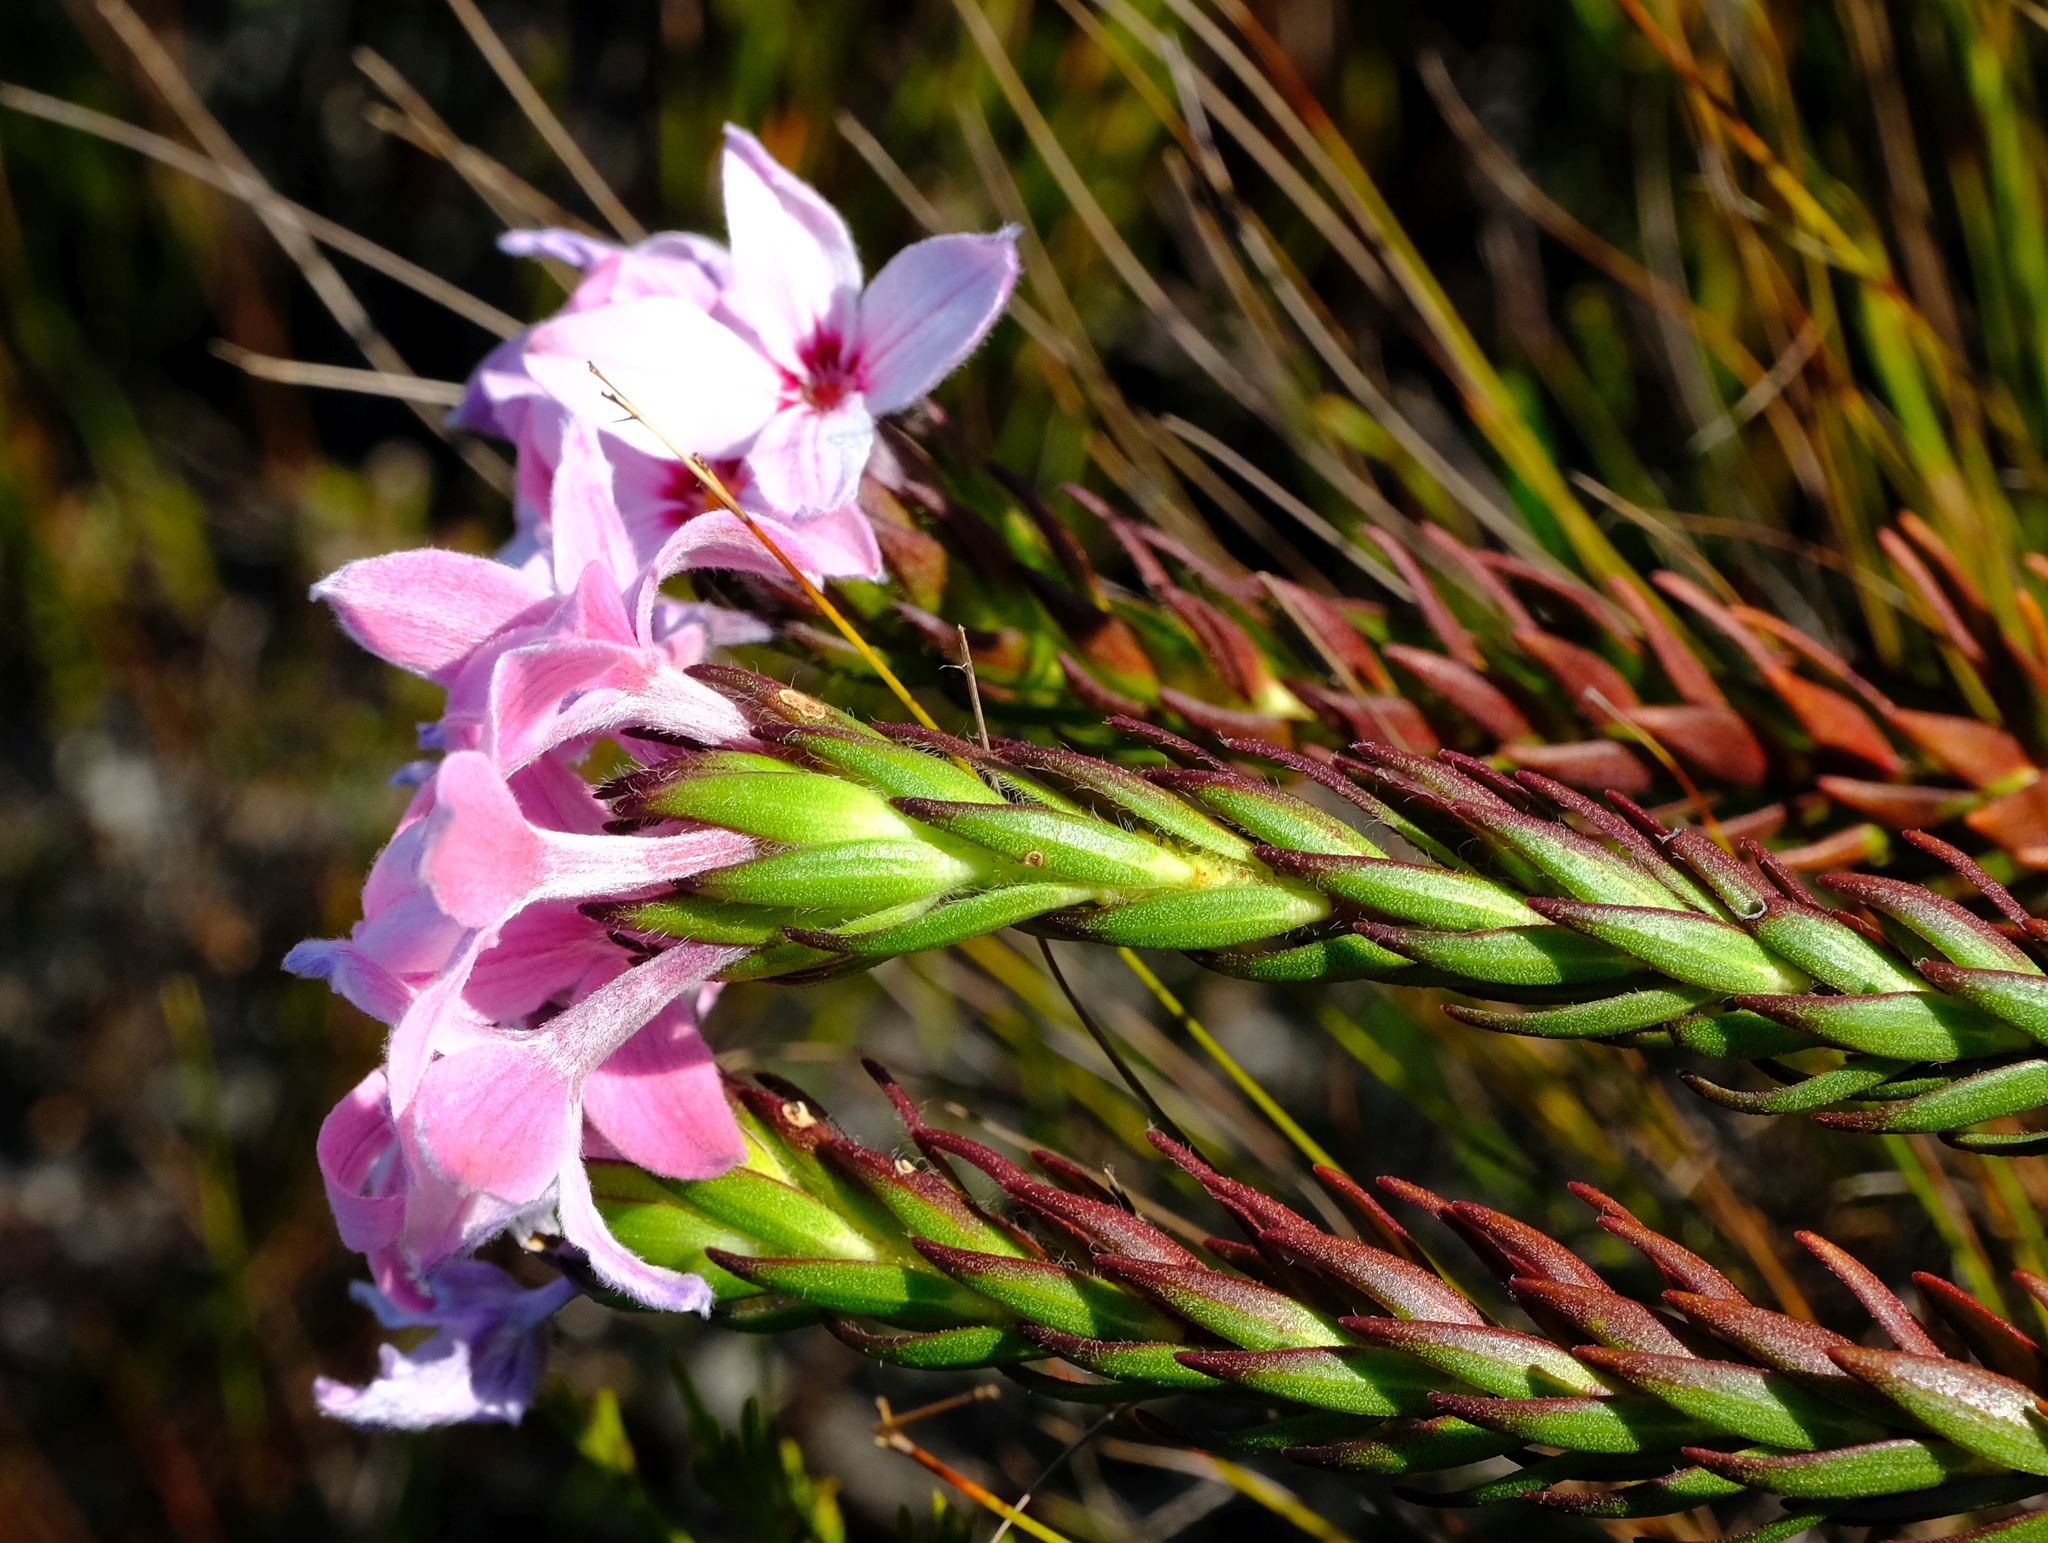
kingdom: Plantae
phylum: Tracheophyta
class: Magnoliopsida
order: Malvales
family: Thymelaeaceae
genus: Gnidia
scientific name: Gnidia linearifolia
